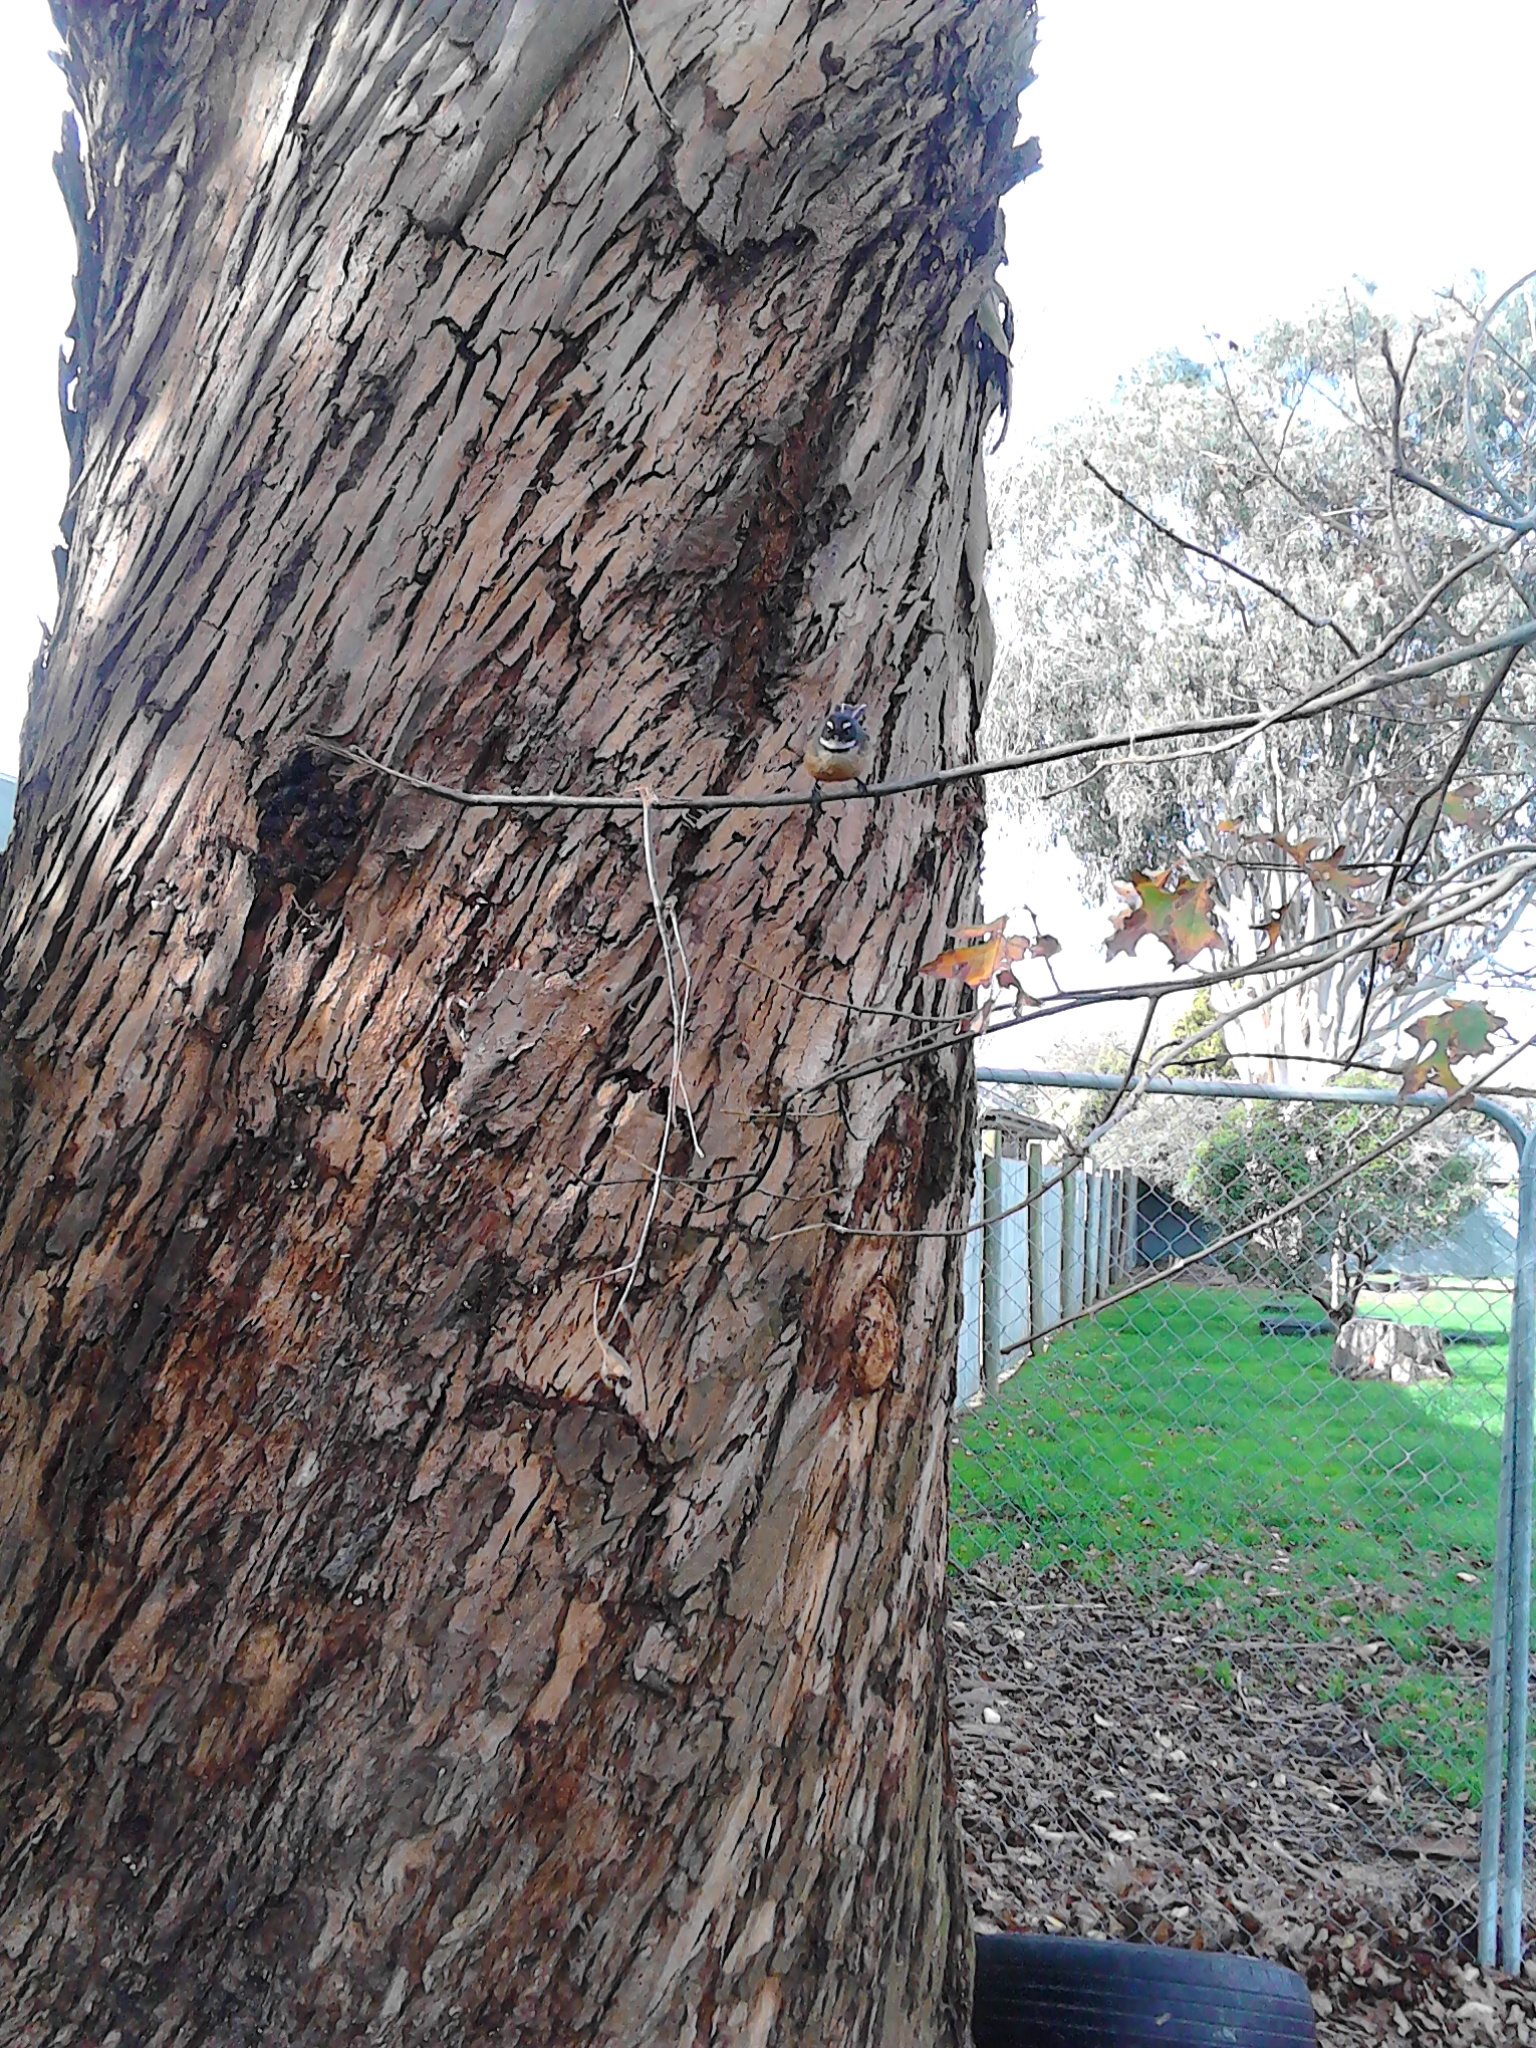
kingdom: Animalia
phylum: Chordata
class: Aves
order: Passeriformes
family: Rhipiduridae
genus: Rhipidura
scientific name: Rhipidura fuliginosa
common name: New zealand fantail
